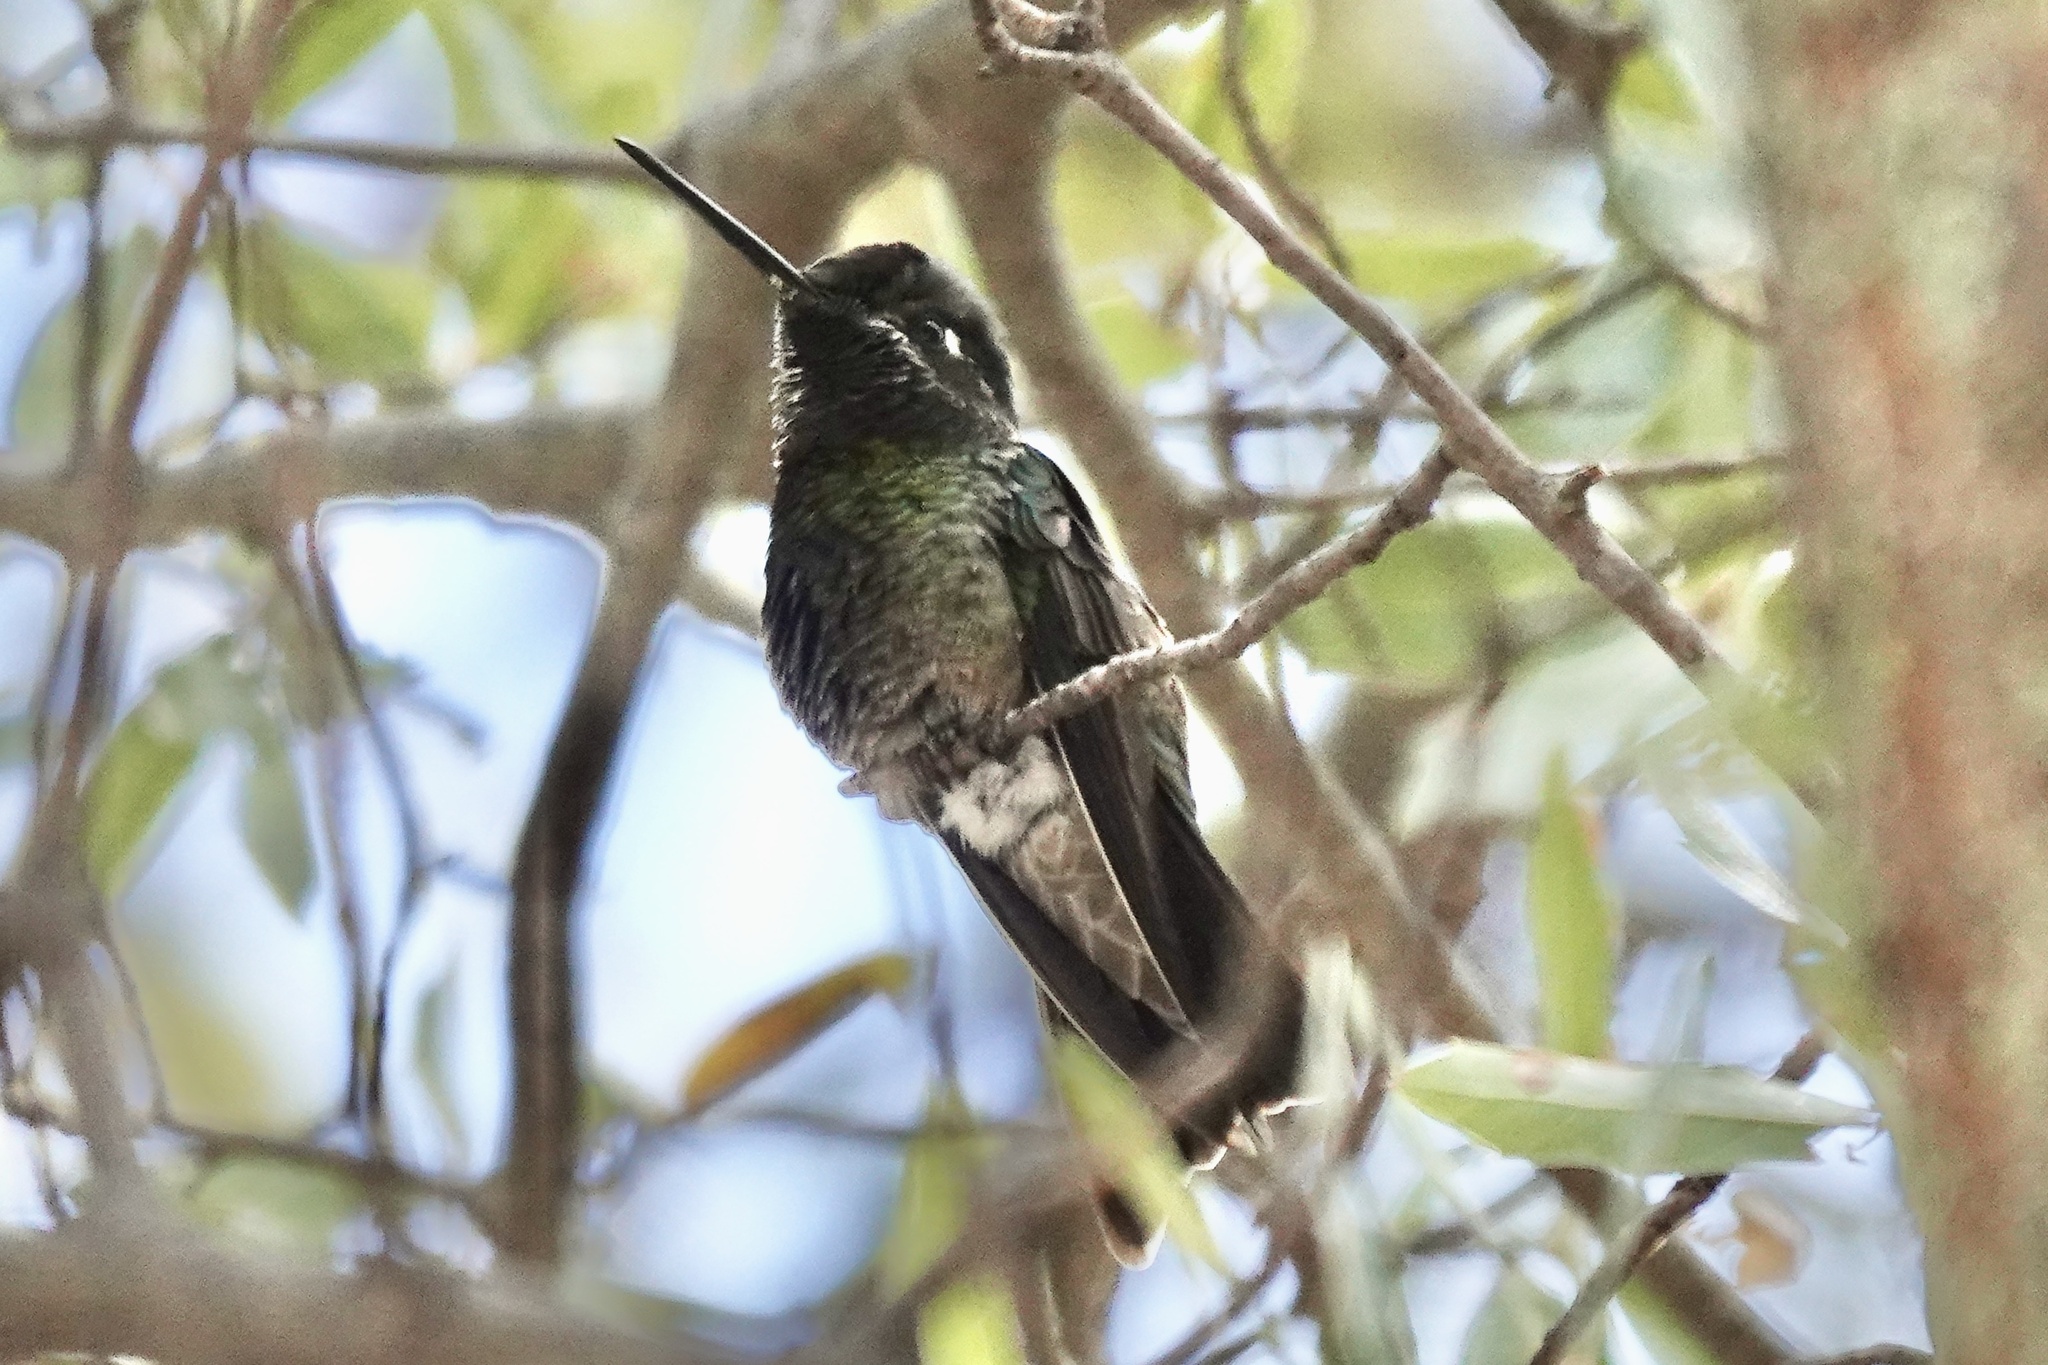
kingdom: Animalia
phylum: Chordata
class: Aves
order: Apodiformes
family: Trochilidae
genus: Eugenes
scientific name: Eugenes fulgens
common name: Magnificent hummingbird
